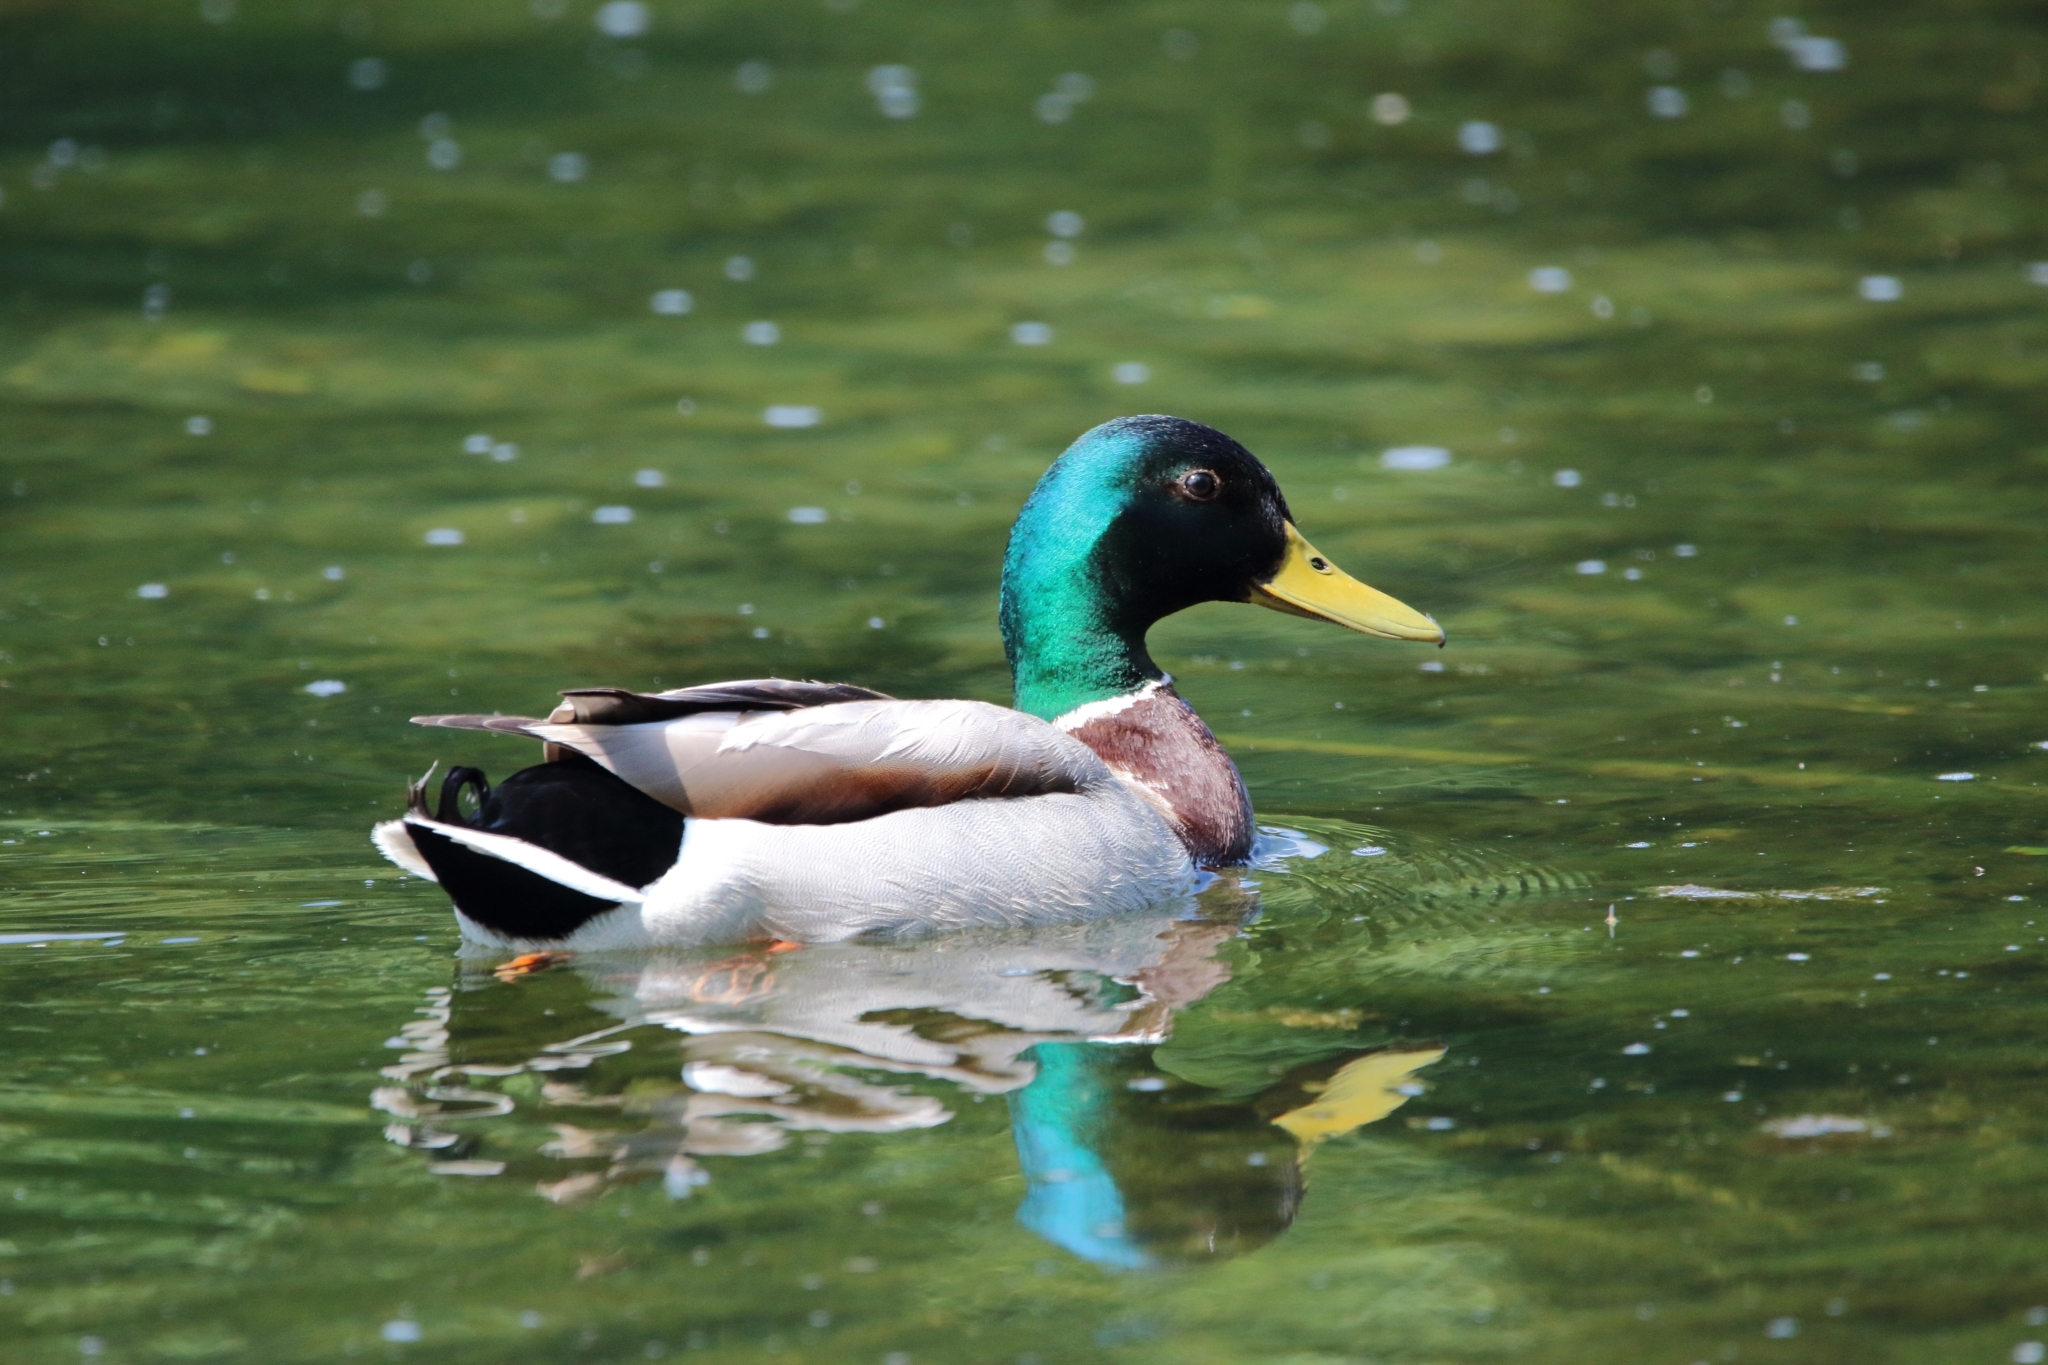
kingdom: Animalia
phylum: Chordata
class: Aves
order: Anseriformes
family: Anatidae
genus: Anas
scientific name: Anas platyrhynchos
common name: Mallard
